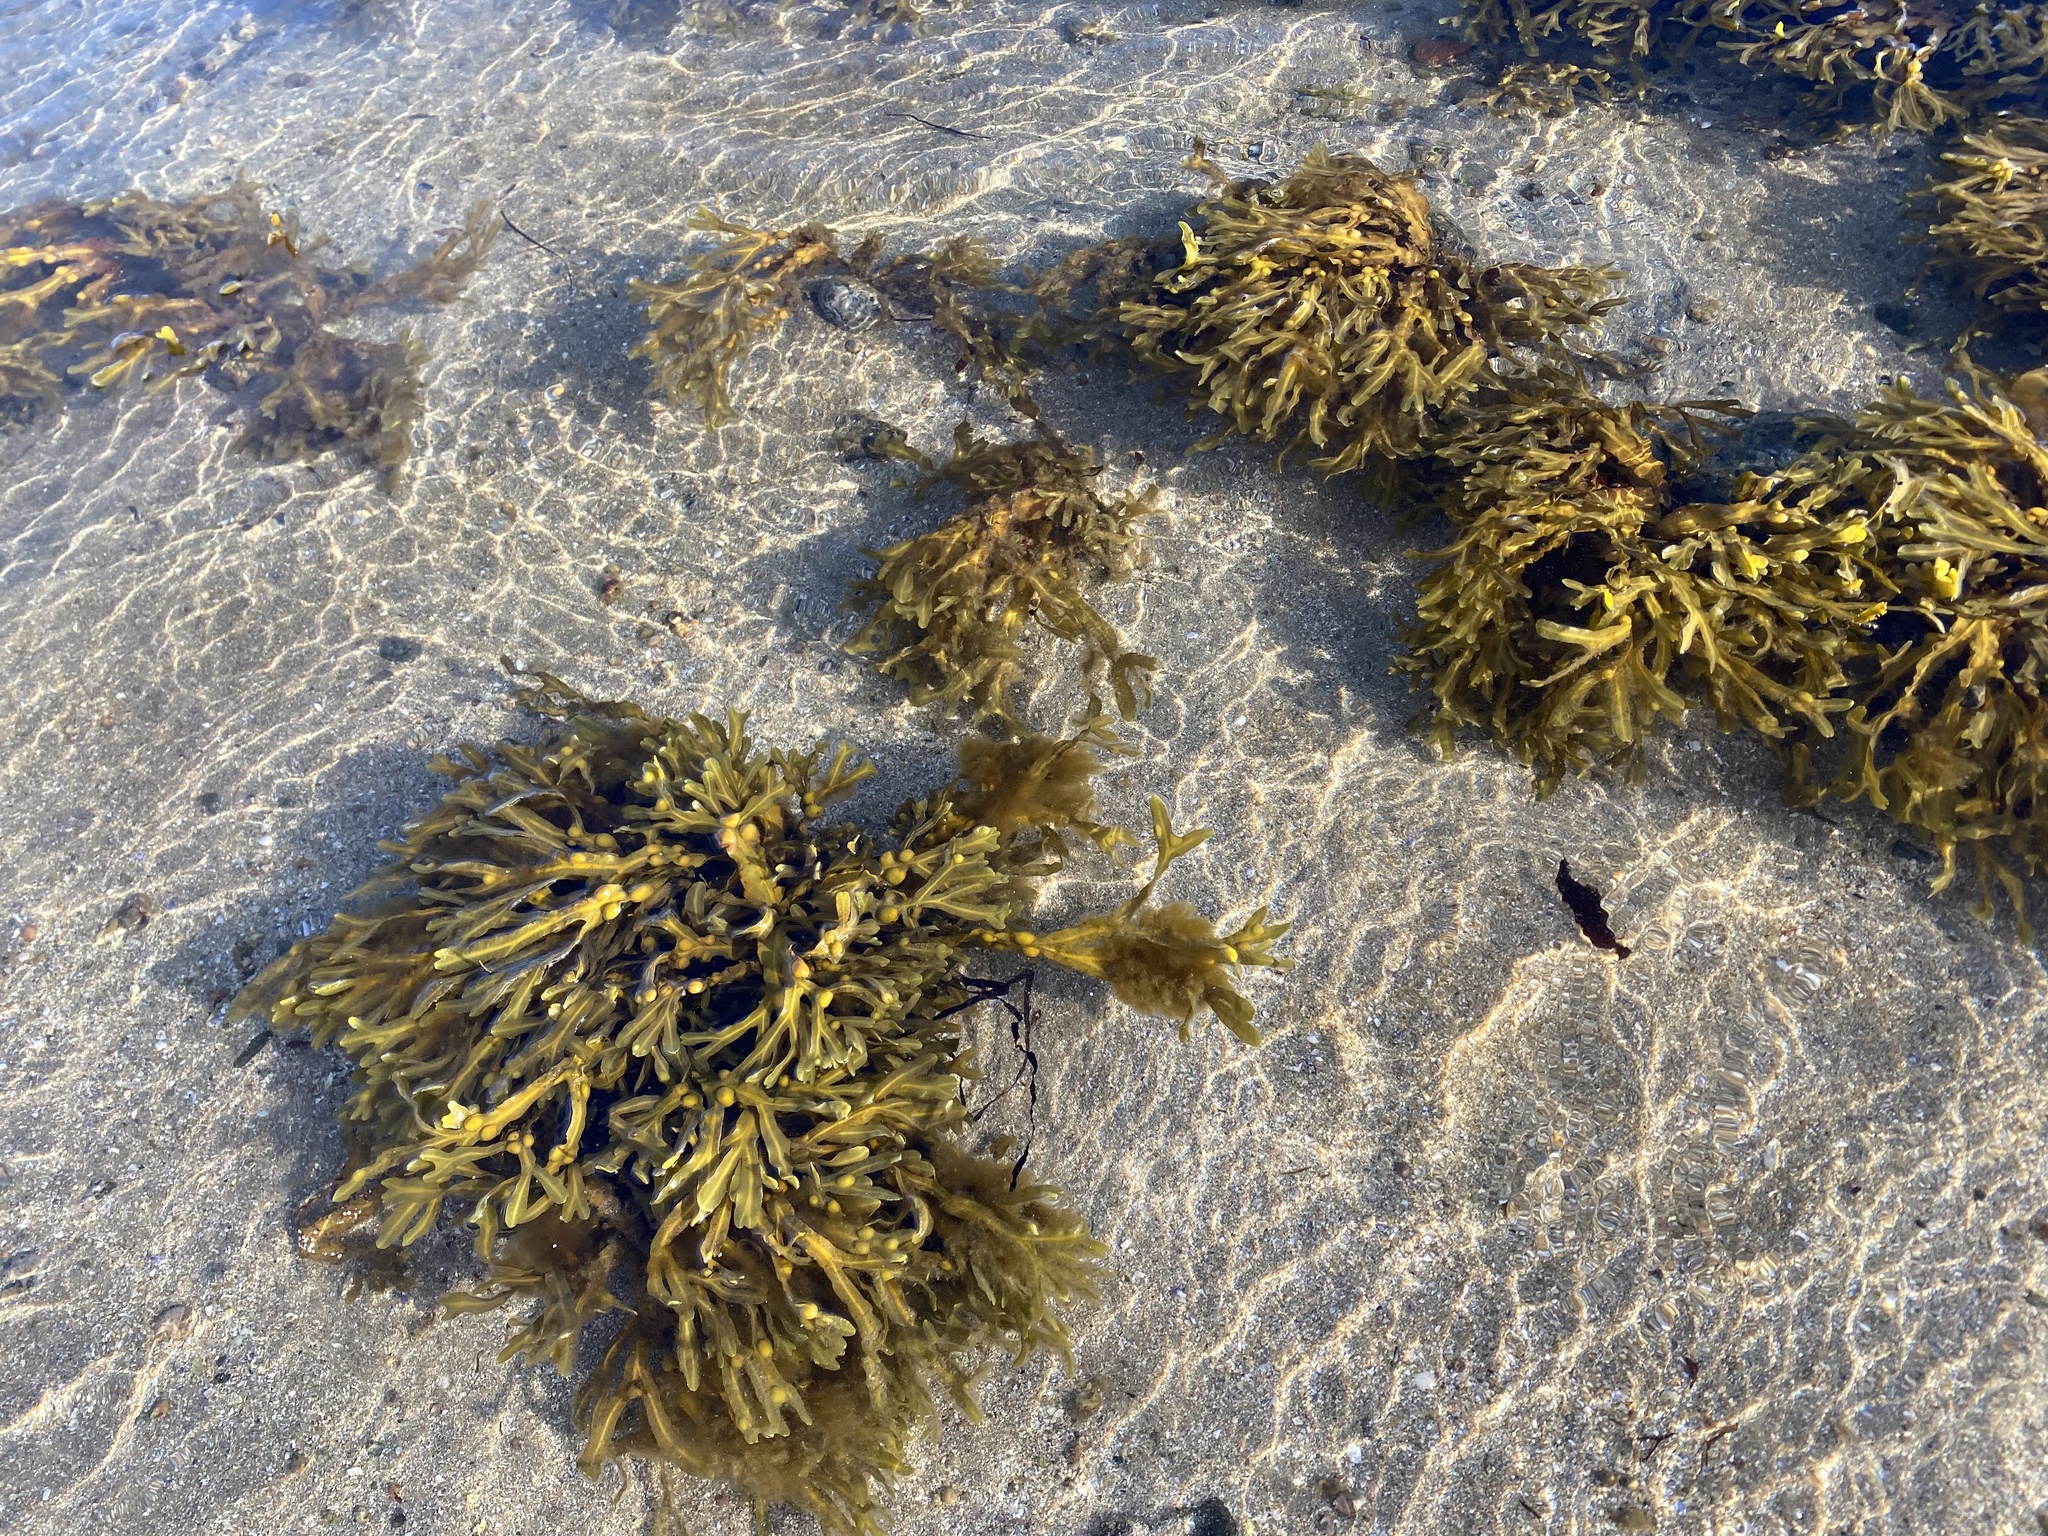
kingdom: Chromista
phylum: Ochrophyta
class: Phaeophyceae
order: Fucales
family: Fucaceae
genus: Fucus
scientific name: Fucus vesiculosus
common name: Bladder wrack
